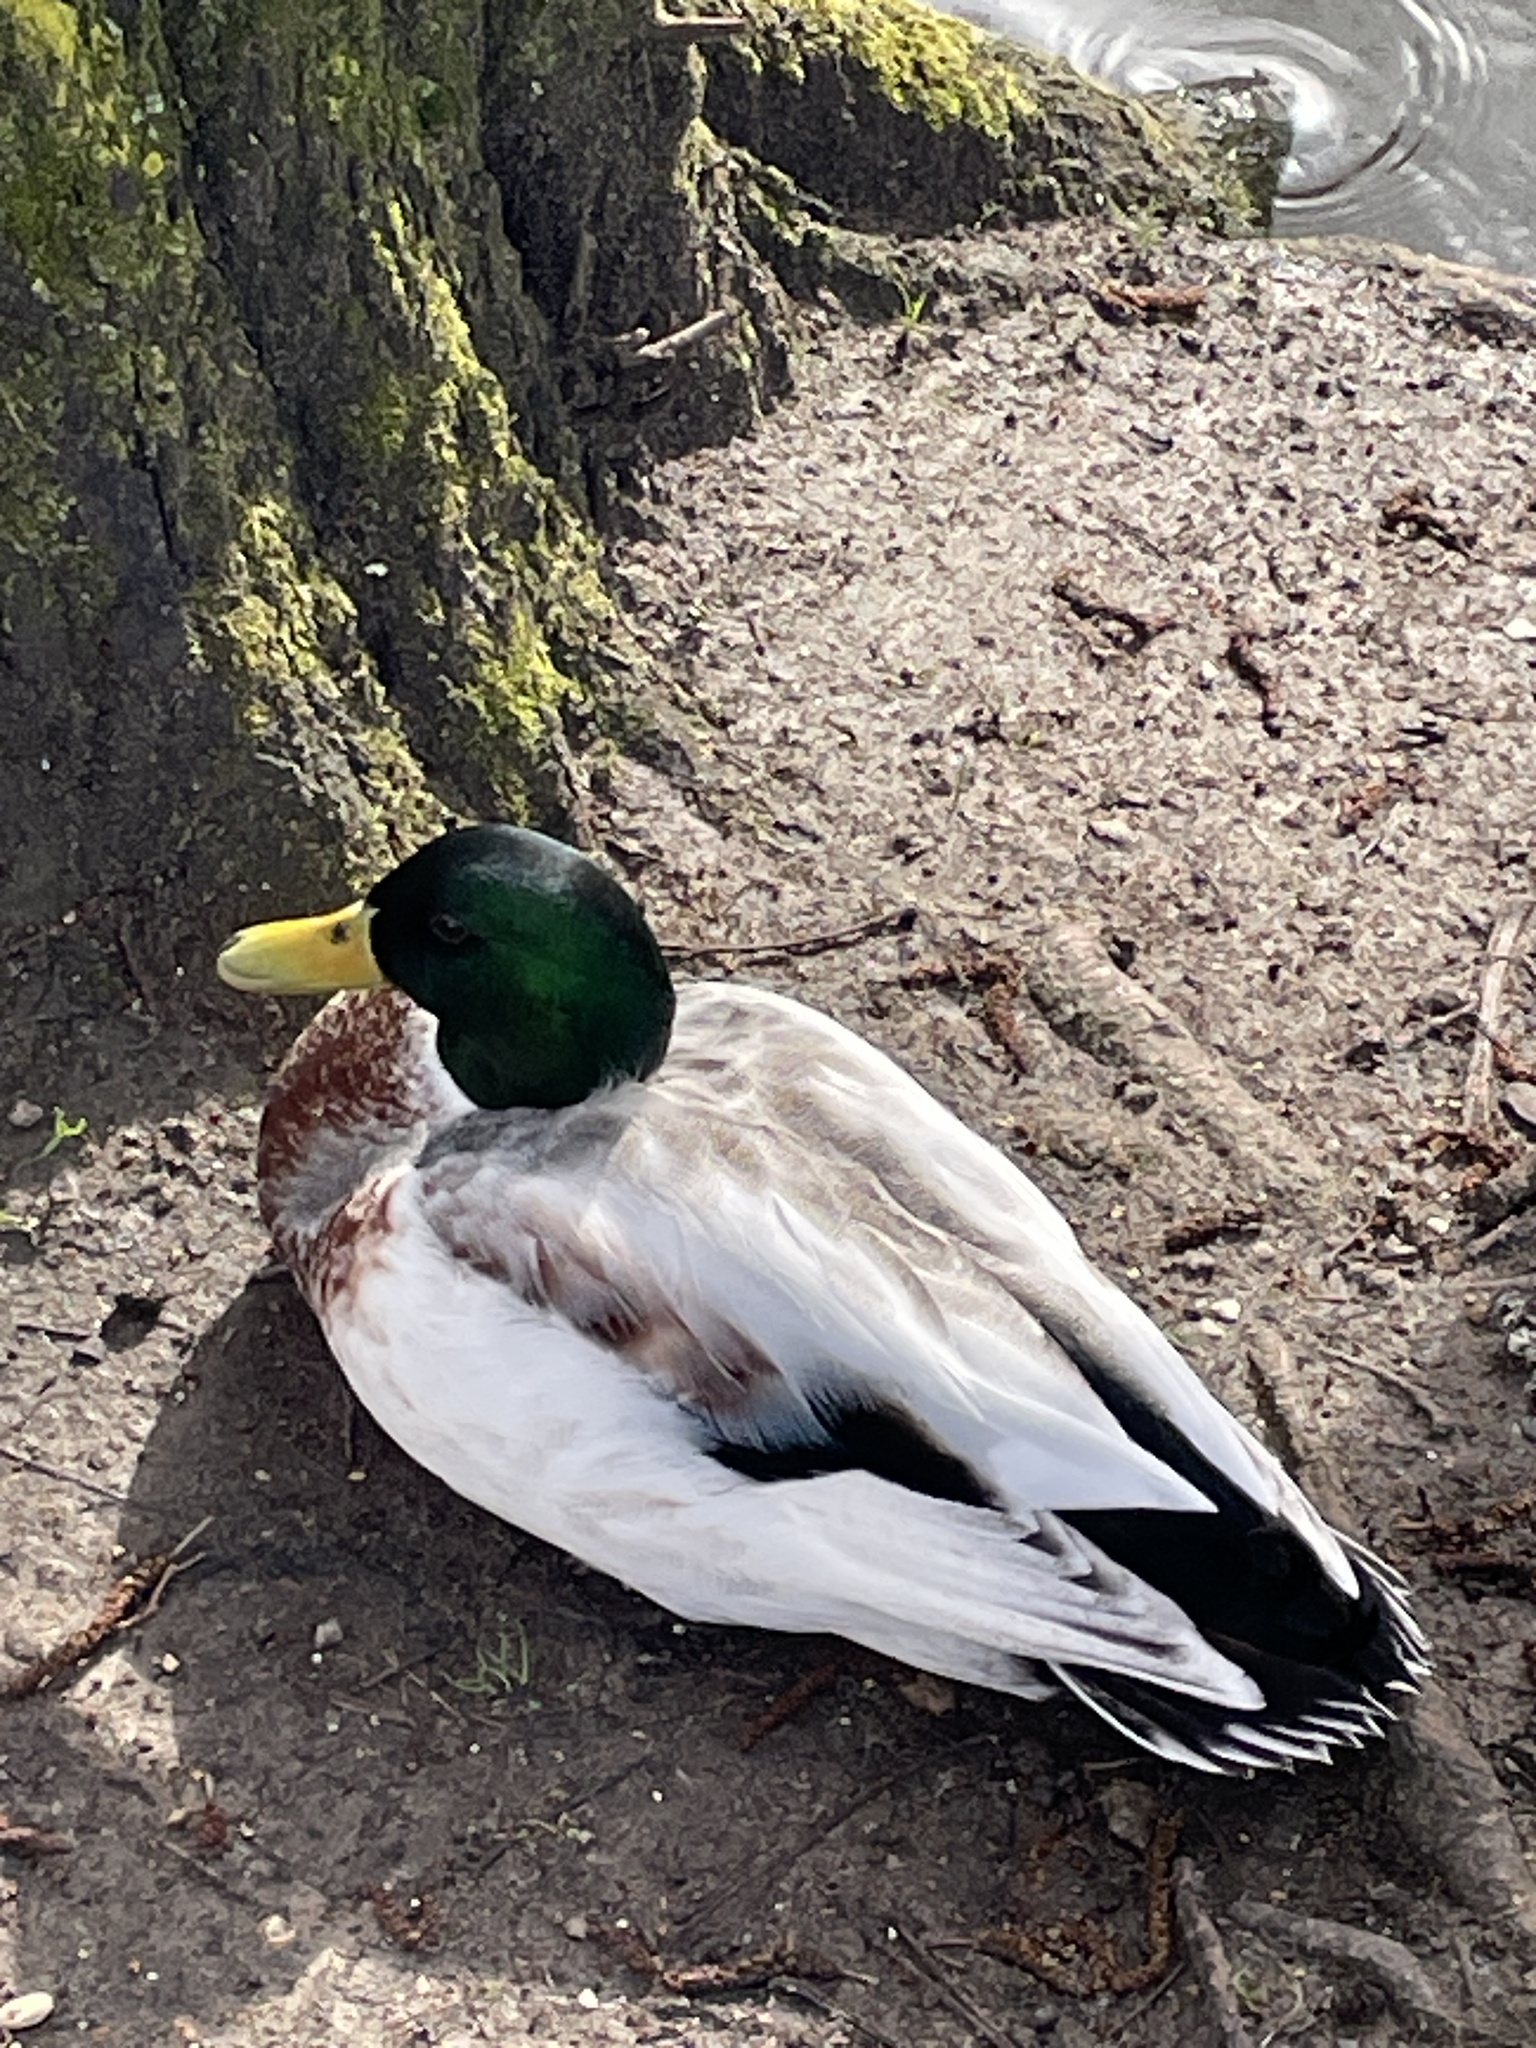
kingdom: Animalia
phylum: Chordata
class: Aves
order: Anseriformes
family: Anatidae
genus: Anas
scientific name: Anas platyrhynchos
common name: Mallard
